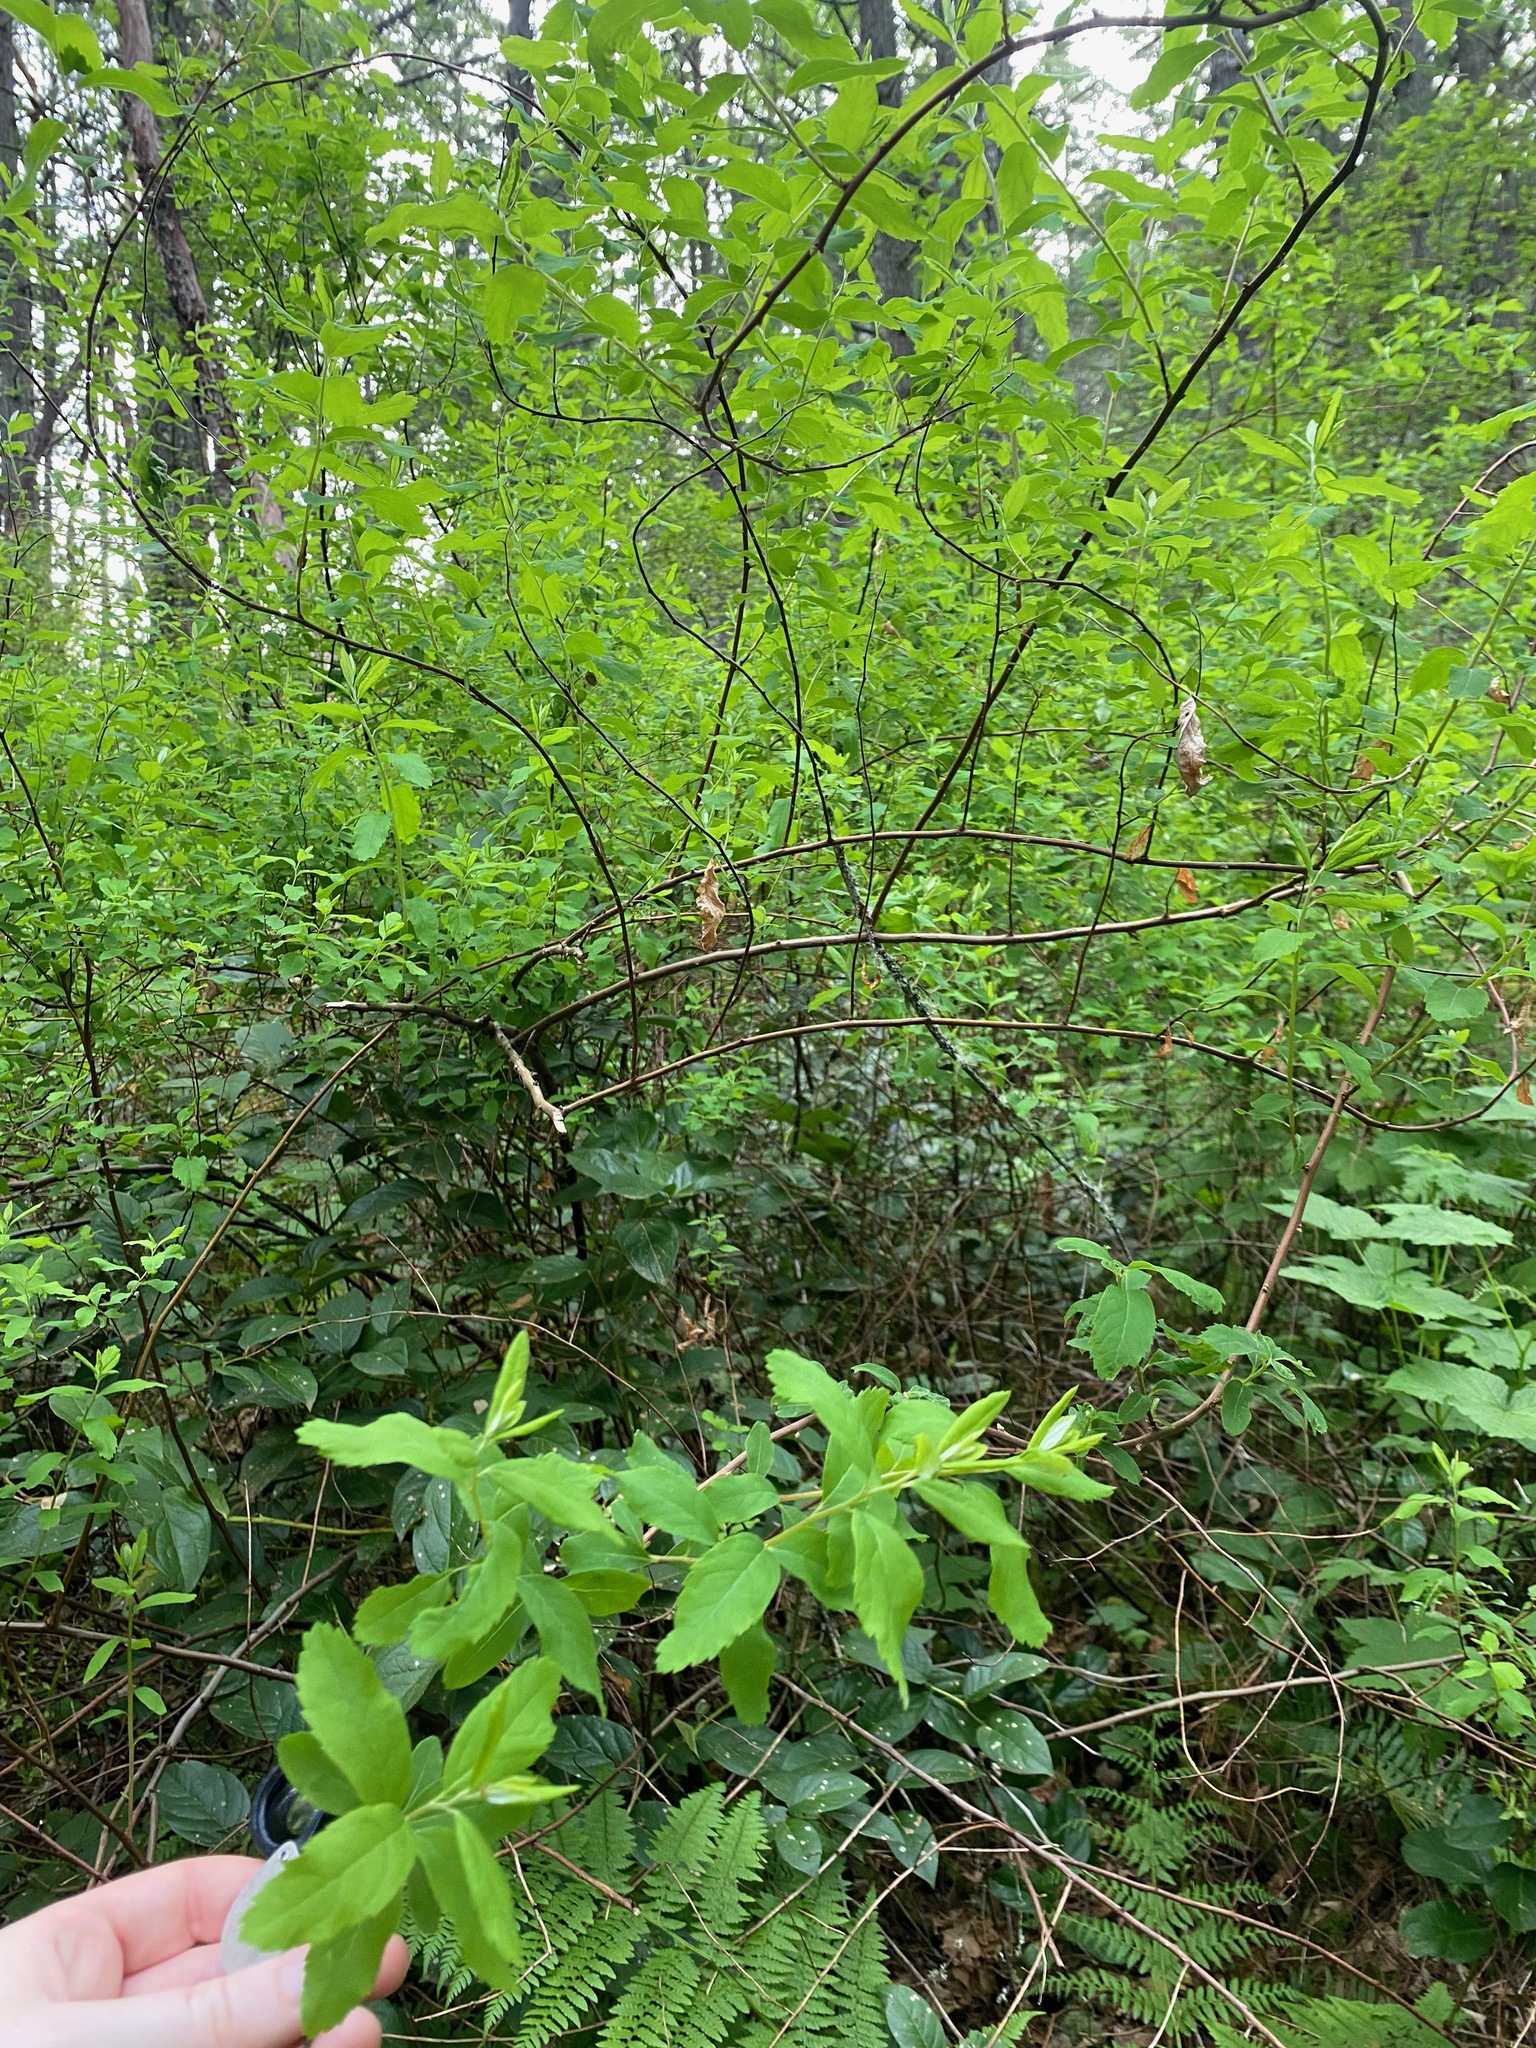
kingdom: Plantae
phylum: Tracheophyta
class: Magnoliopsida
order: Rosales
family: Rosaceae
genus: Spiraea
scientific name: Spiraea douglasii
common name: Steeplebush
